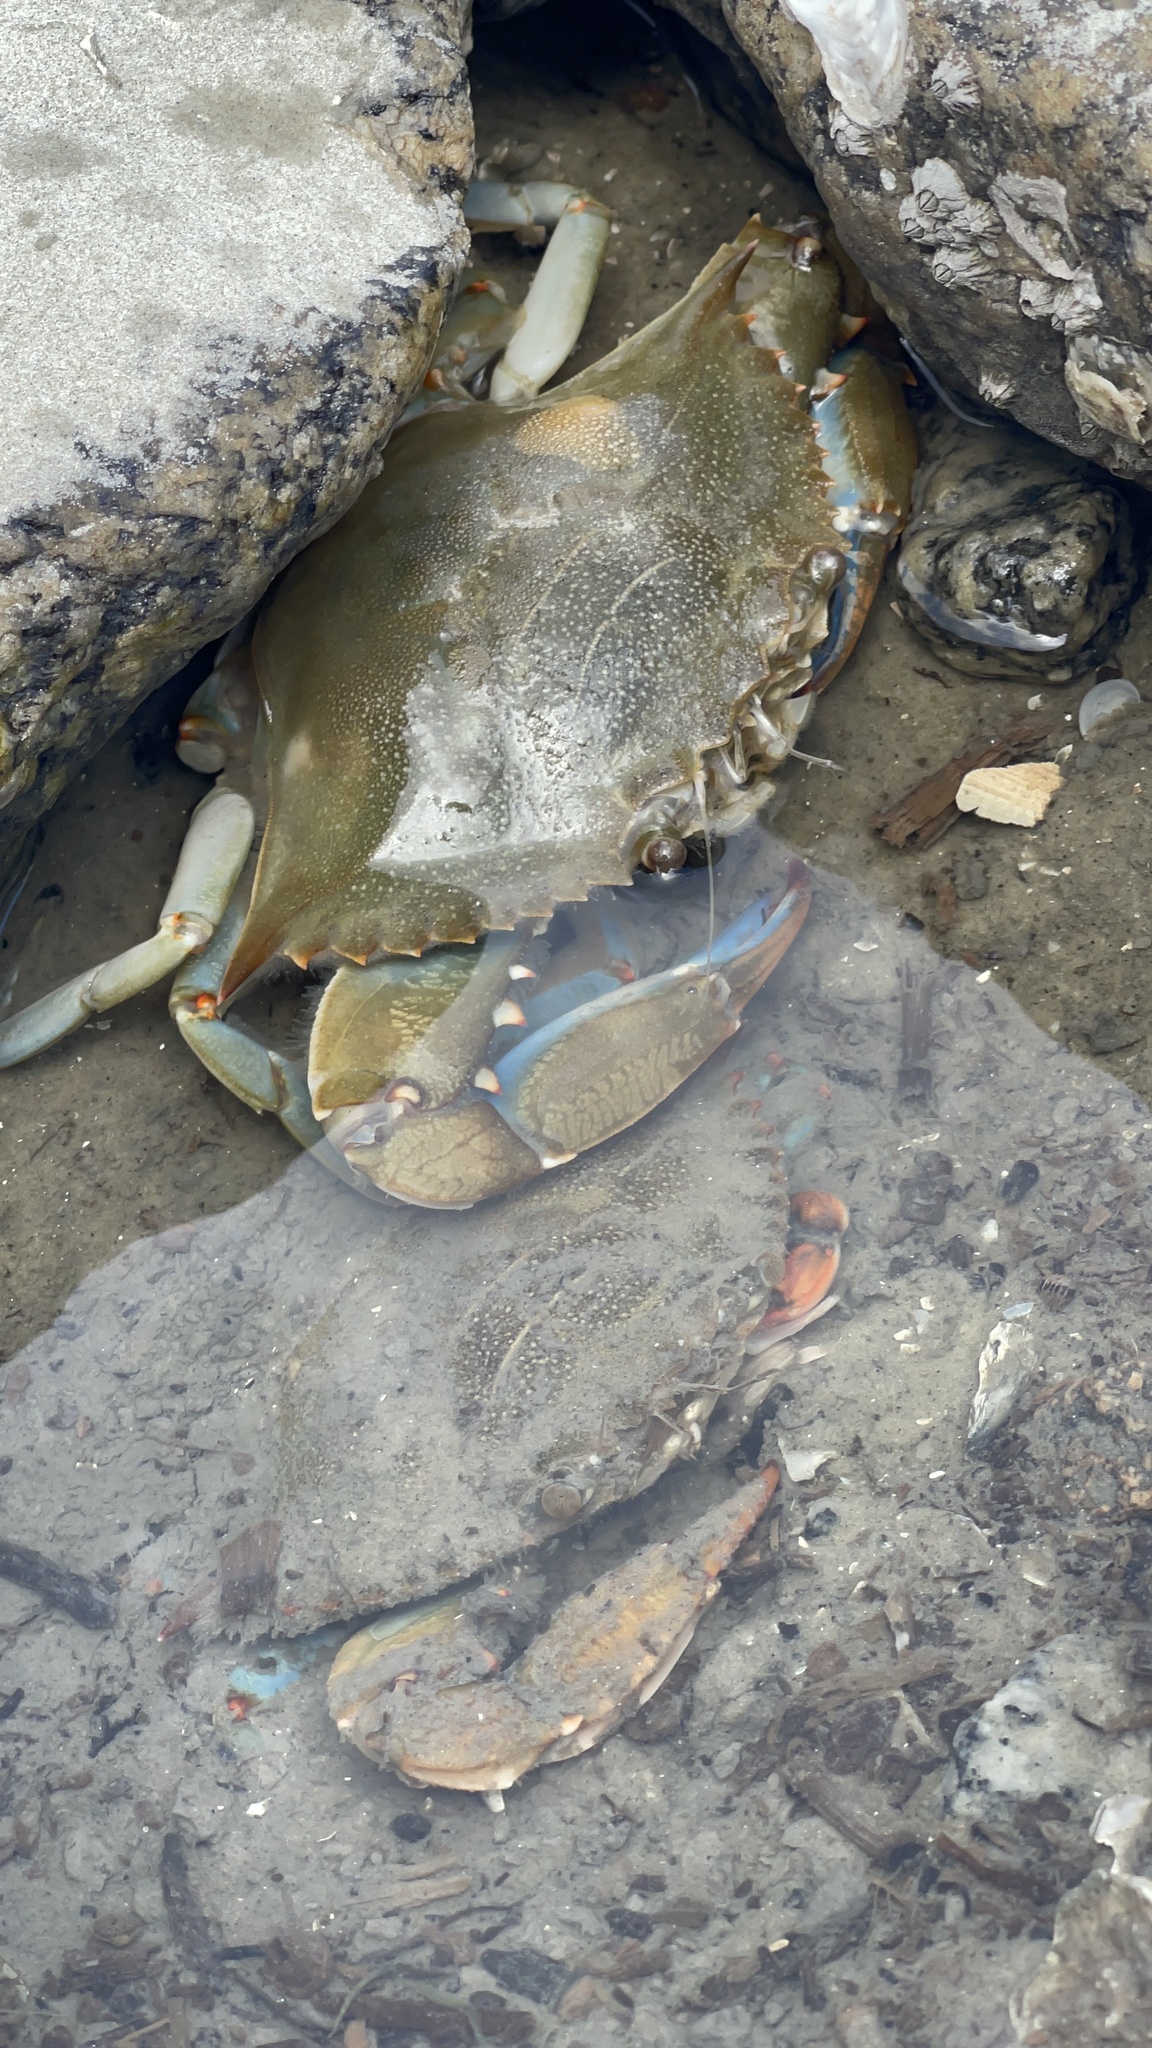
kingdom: Animalia
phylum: Arthropoda
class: Malacostraca
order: Decapoda
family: Portunidae
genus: Callinectes
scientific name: Callinectes sapidus
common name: Blue crab
